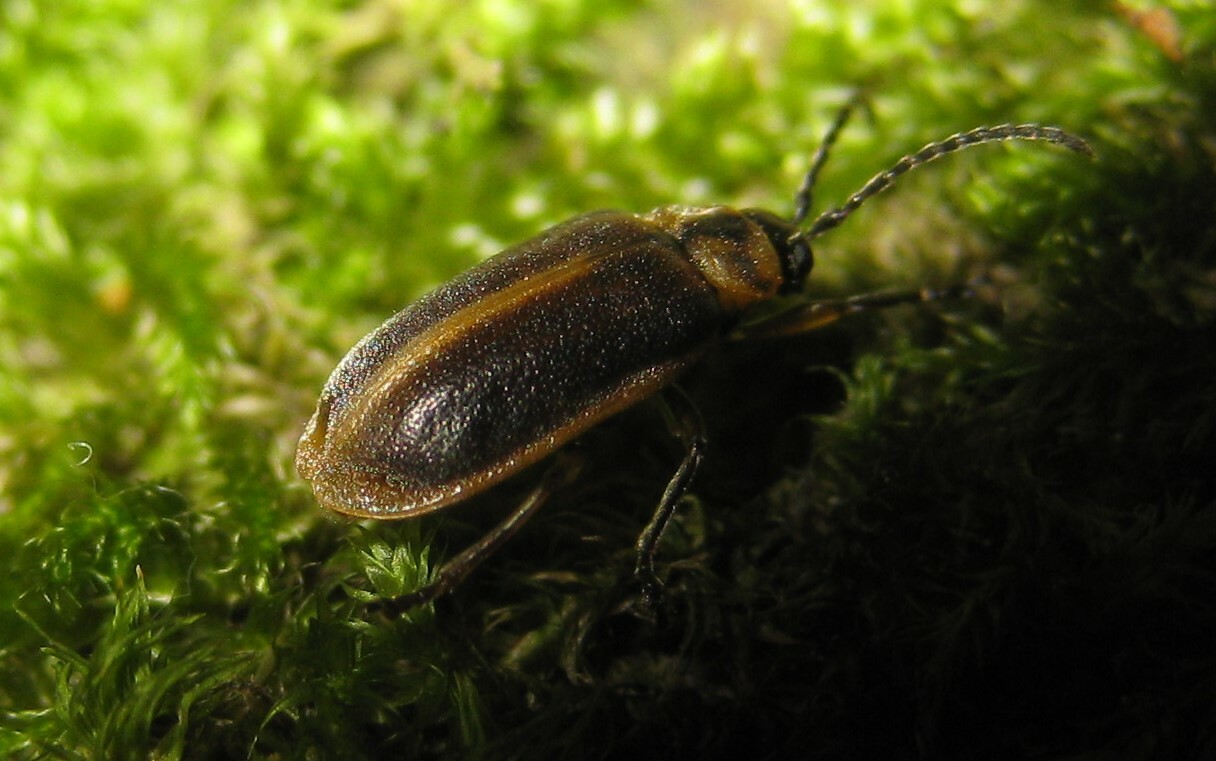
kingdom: Animalia
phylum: Arthropoda
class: Insecta
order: Coleoptera
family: Chrysomelidae
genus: Galerucella
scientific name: Galerucella lineola
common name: Brown willow beetle
